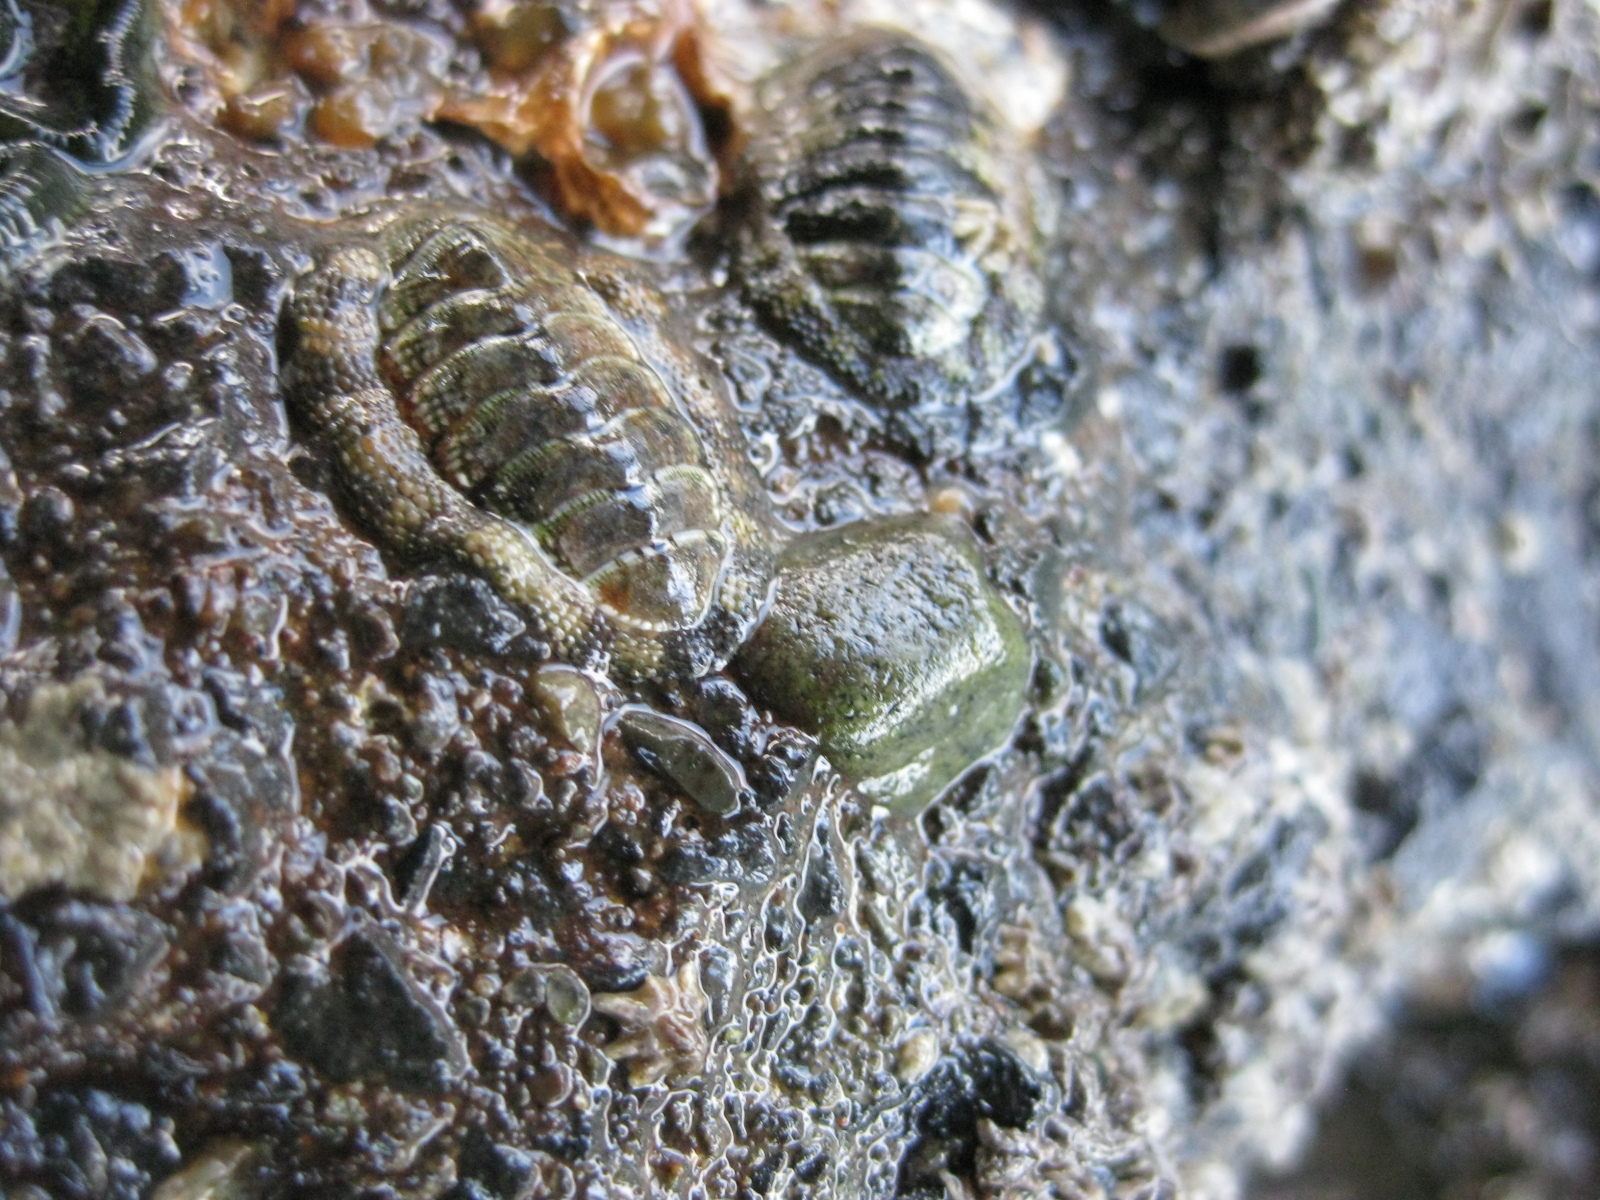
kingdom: Animalia
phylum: Mollusca
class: Polyplacophora
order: Chitonida
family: Chitonidae
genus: Sypharochiton
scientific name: Sypharochiton pelliserpentis
